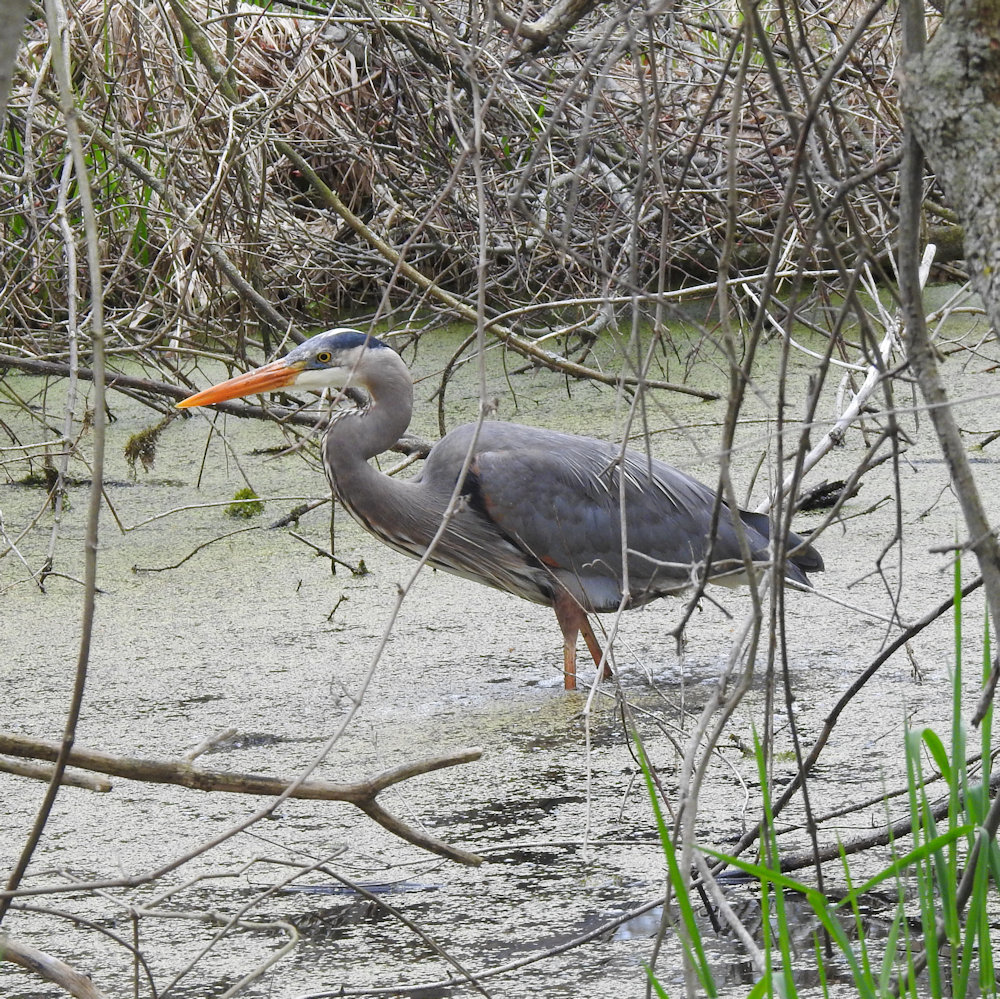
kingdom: Animalia
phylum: Chordata
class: Aves
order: Pelecaniformes
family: Ardeidae
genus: Ardea
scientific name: Ardea herodias
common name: Great blue heron
